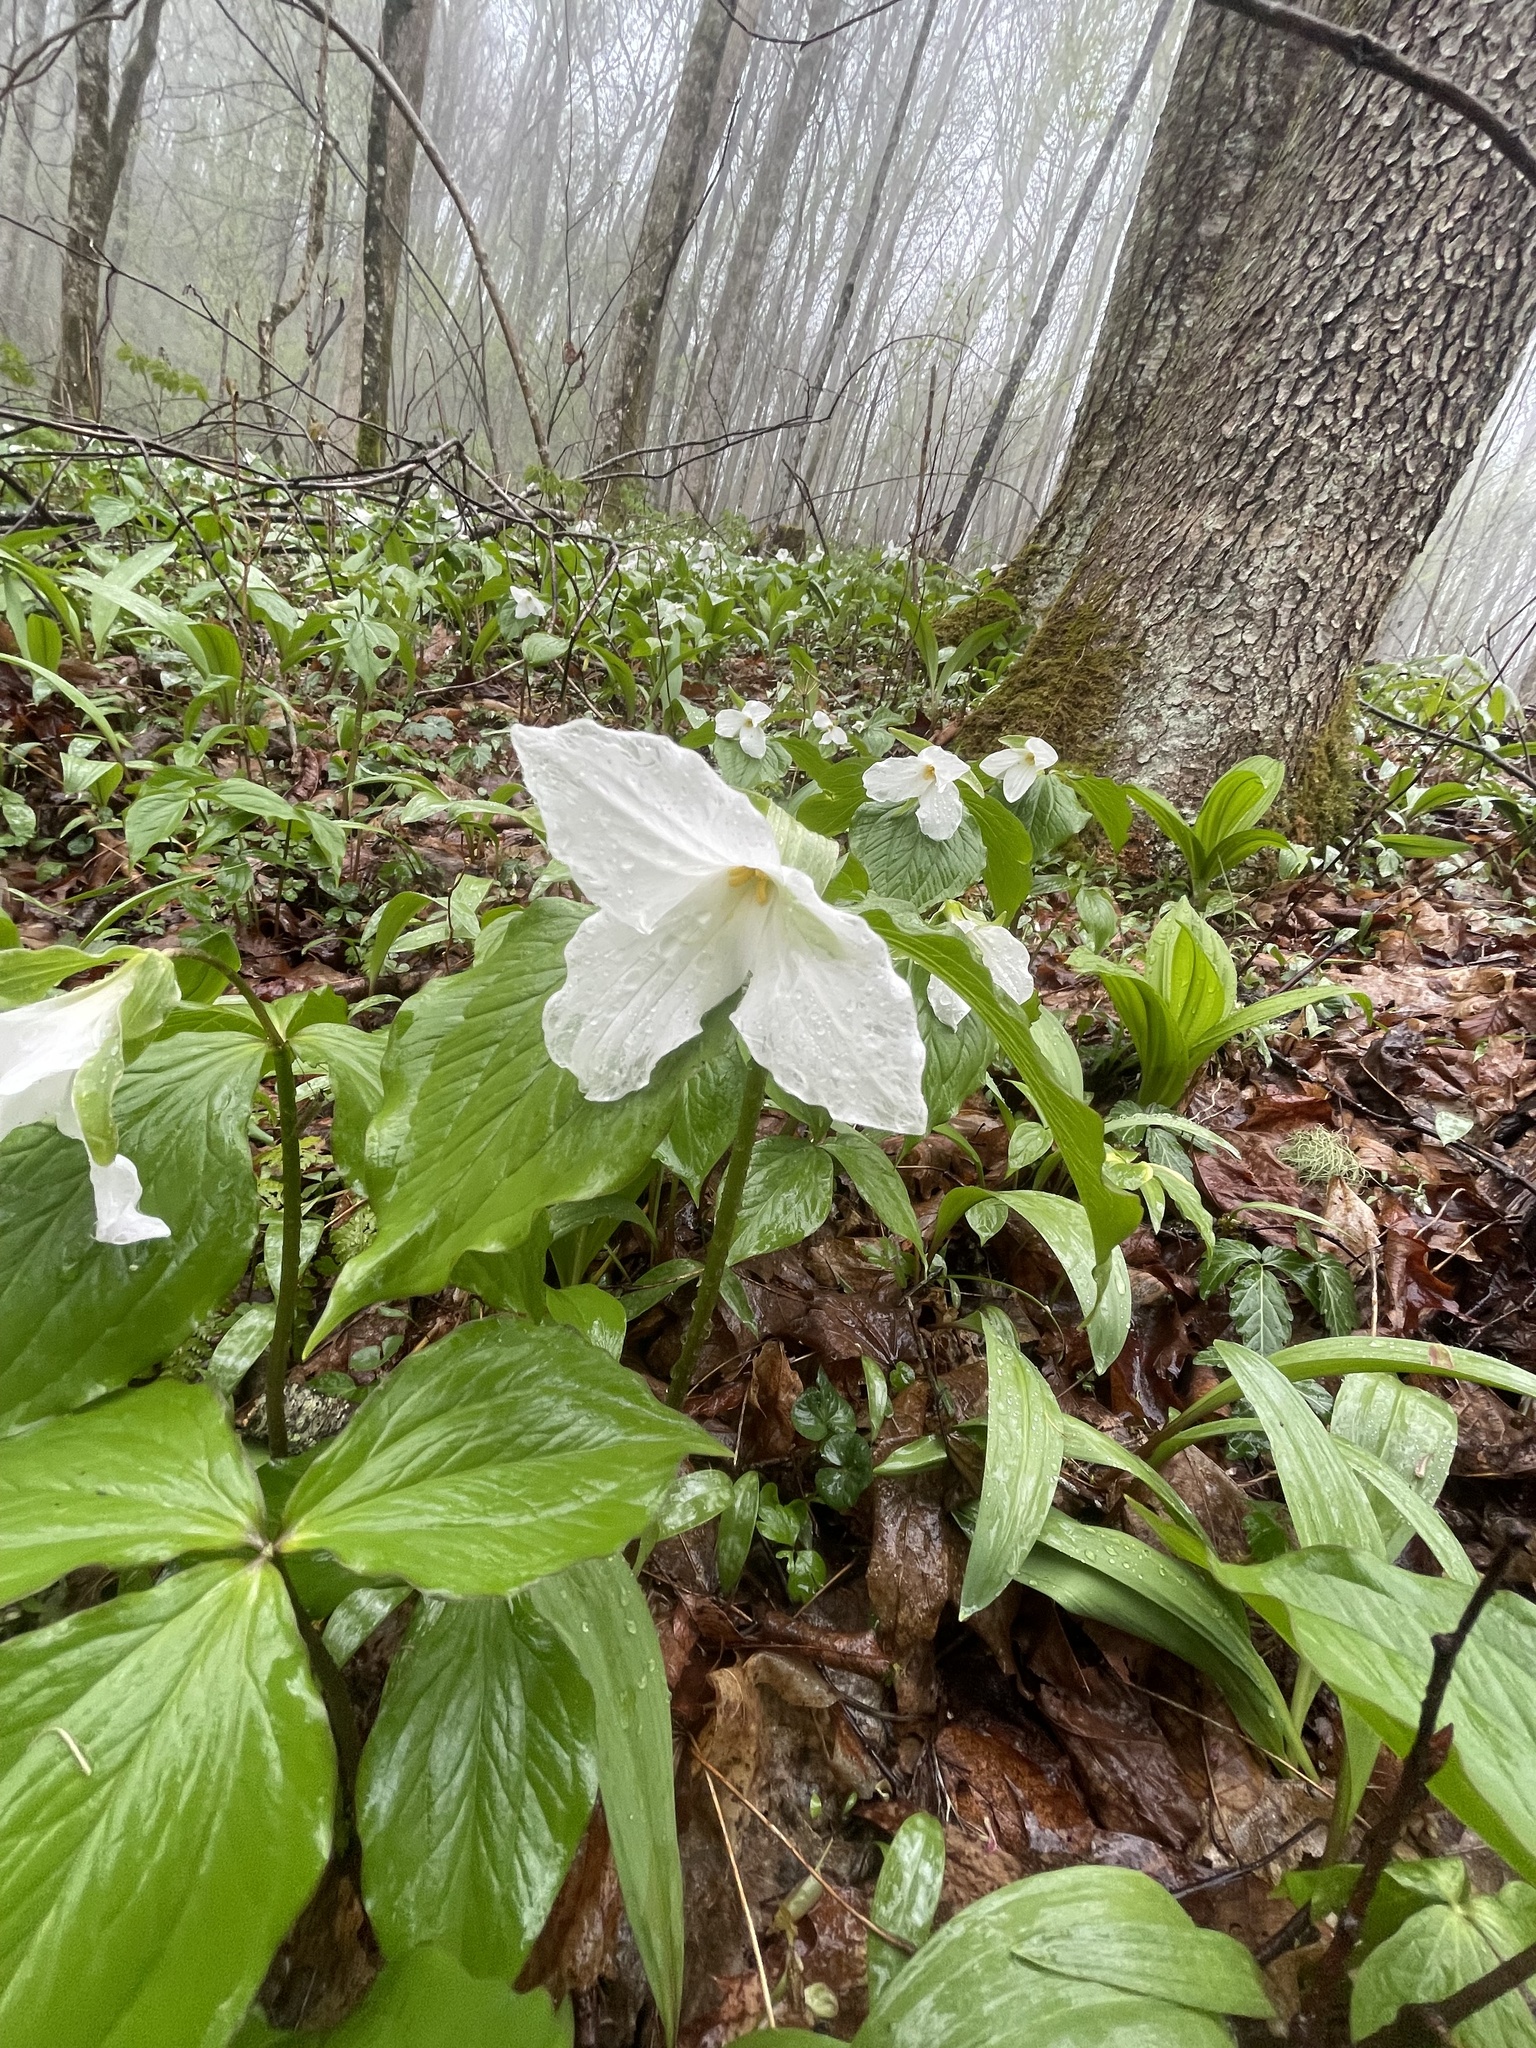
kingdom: Plantae
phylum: Tracheophyta
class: Liliopsida
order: Liliales
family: Melanthiaceae
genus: Trillium
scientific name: Trillium grandiflorum
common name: Great white trillium
